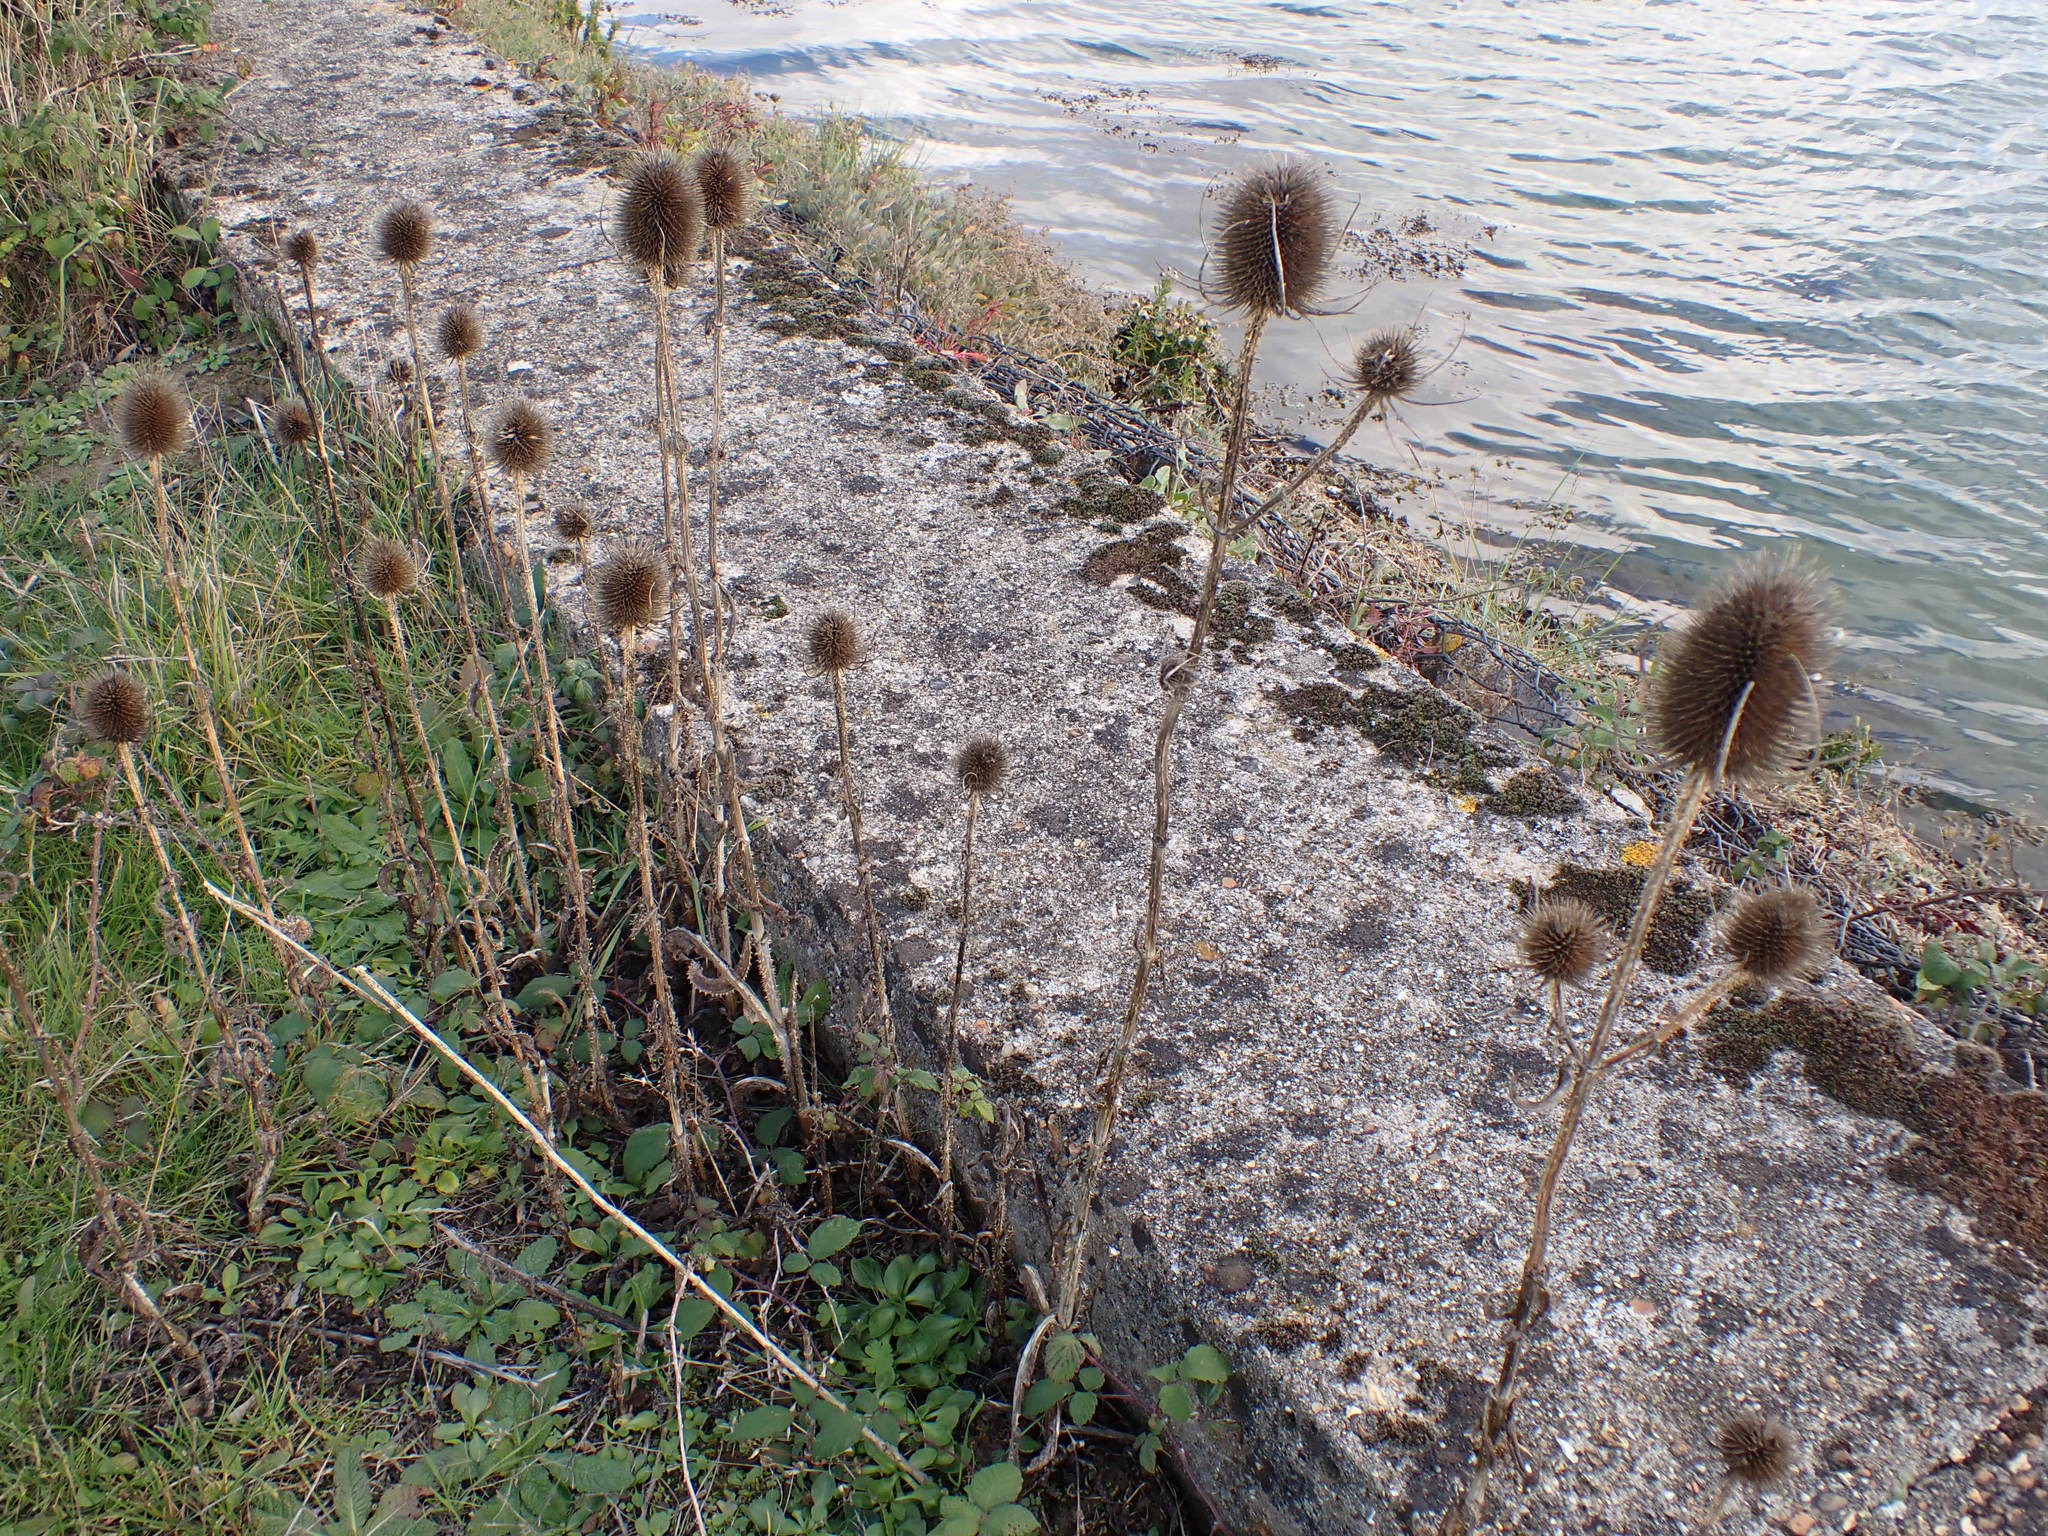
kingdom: Plantae
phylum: Tracheophyta
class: Magnoliopsida
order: Dipsacales
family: Caprifoliaceae
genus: Dipsacus
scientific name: Dipsacus fullonum
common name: Teasel
